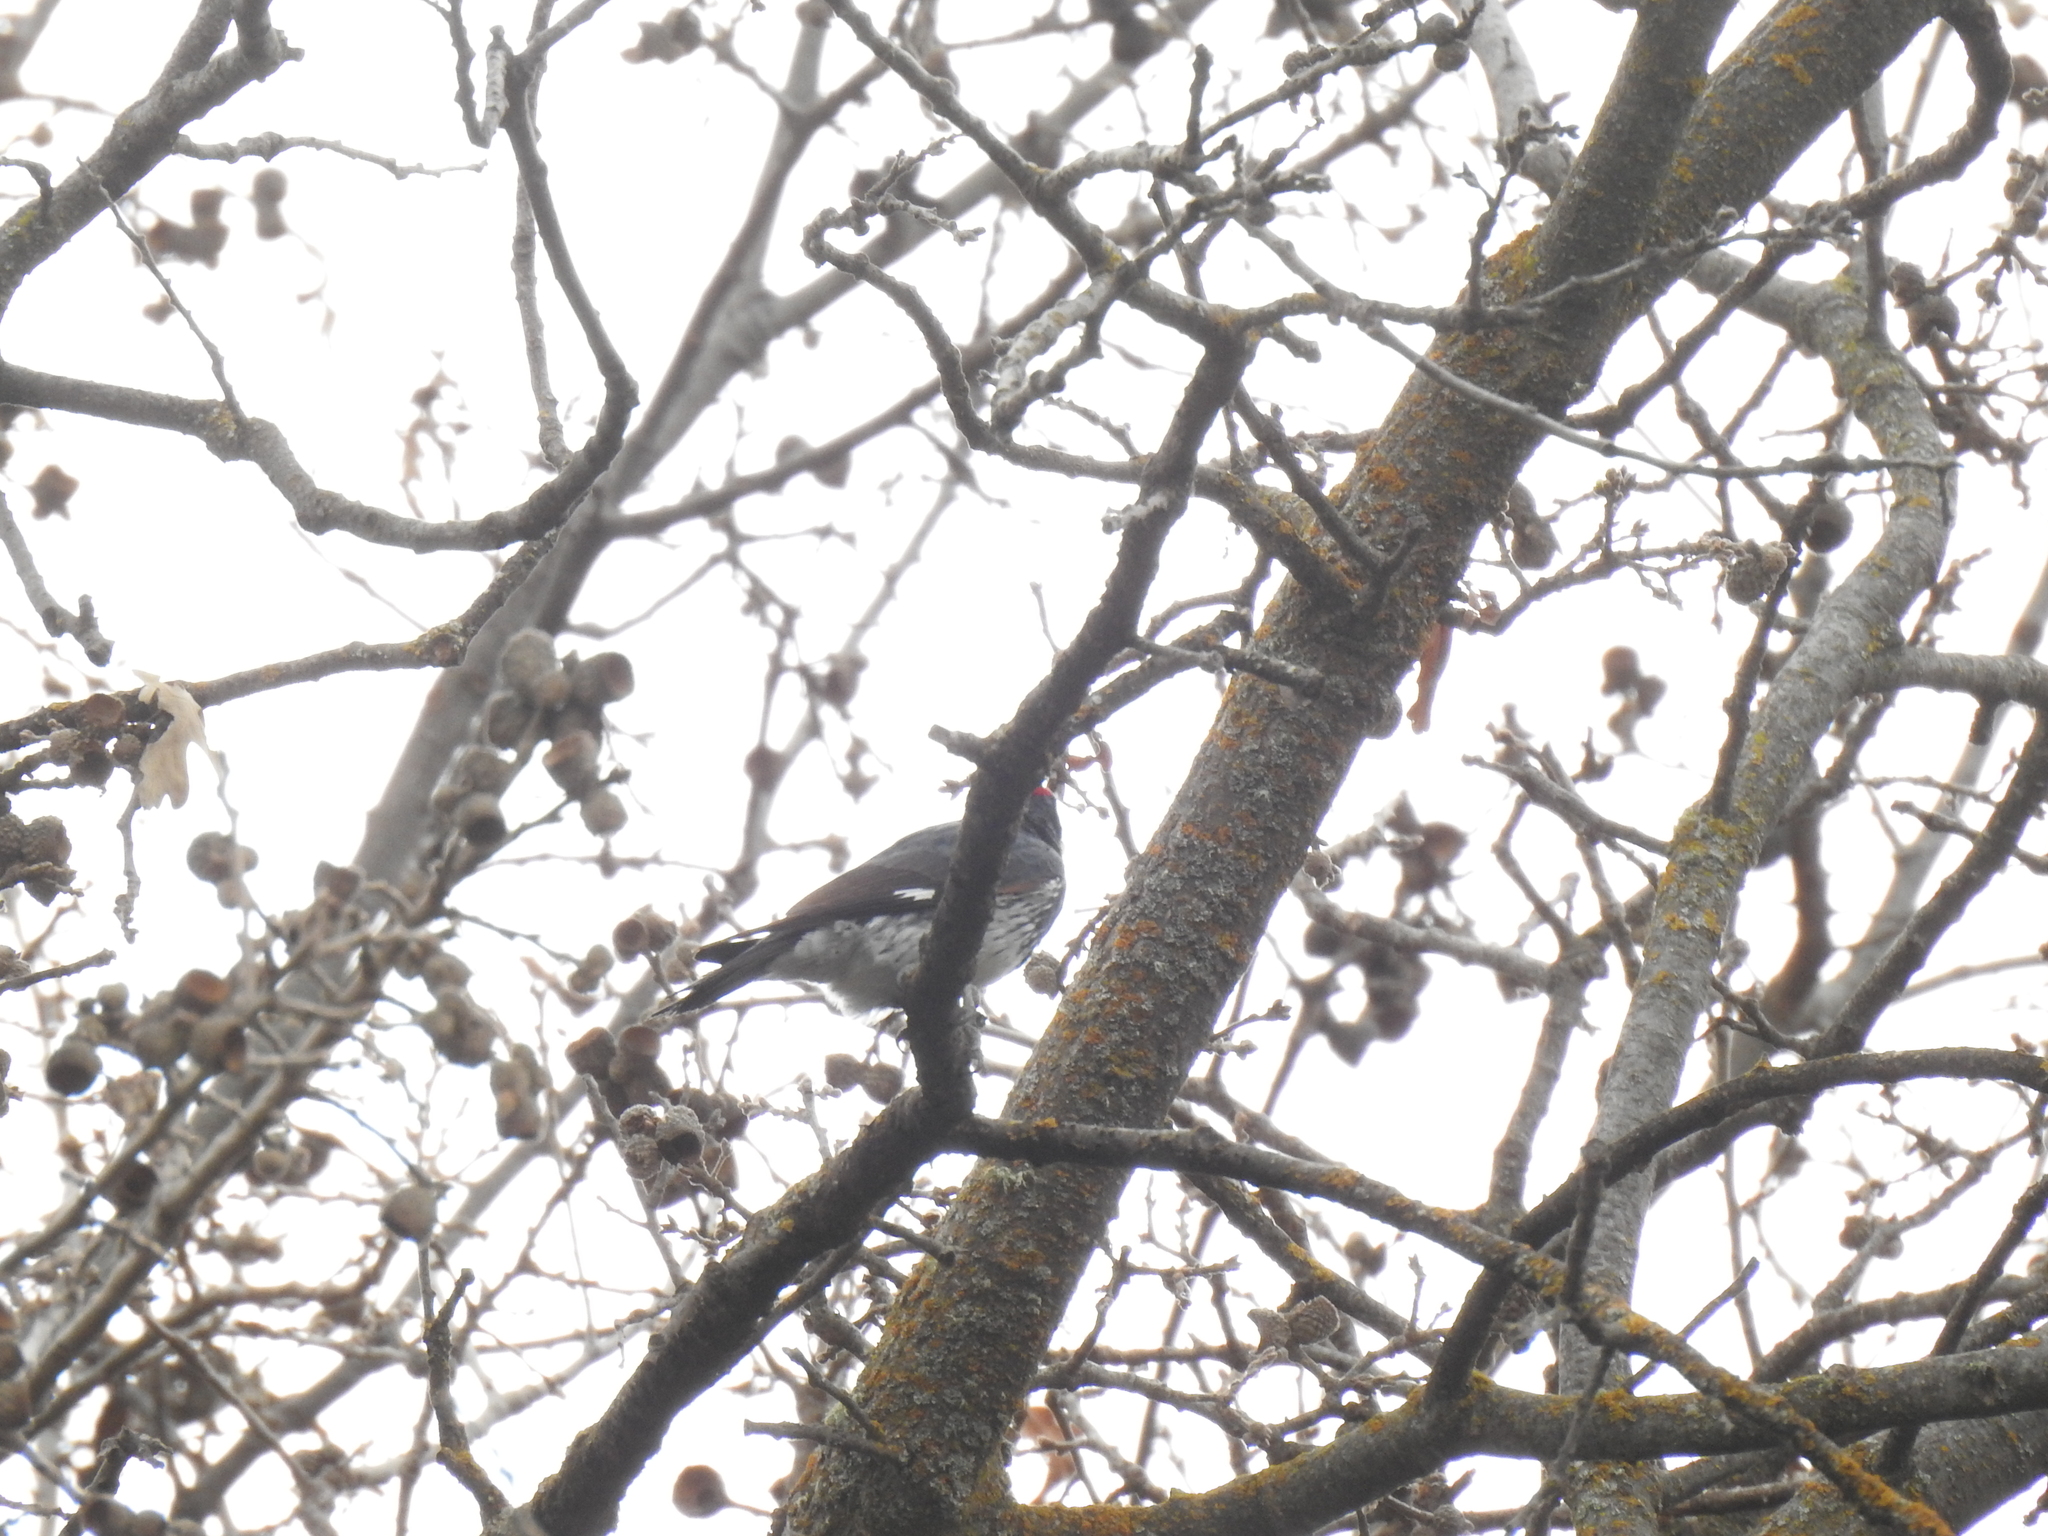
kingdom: Animalia
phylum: Chordata
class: Aves
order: Piciformes
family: Picidae
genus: Melanerpes
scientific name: Melanerpes formicivorus
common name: Acorn woodpecker
